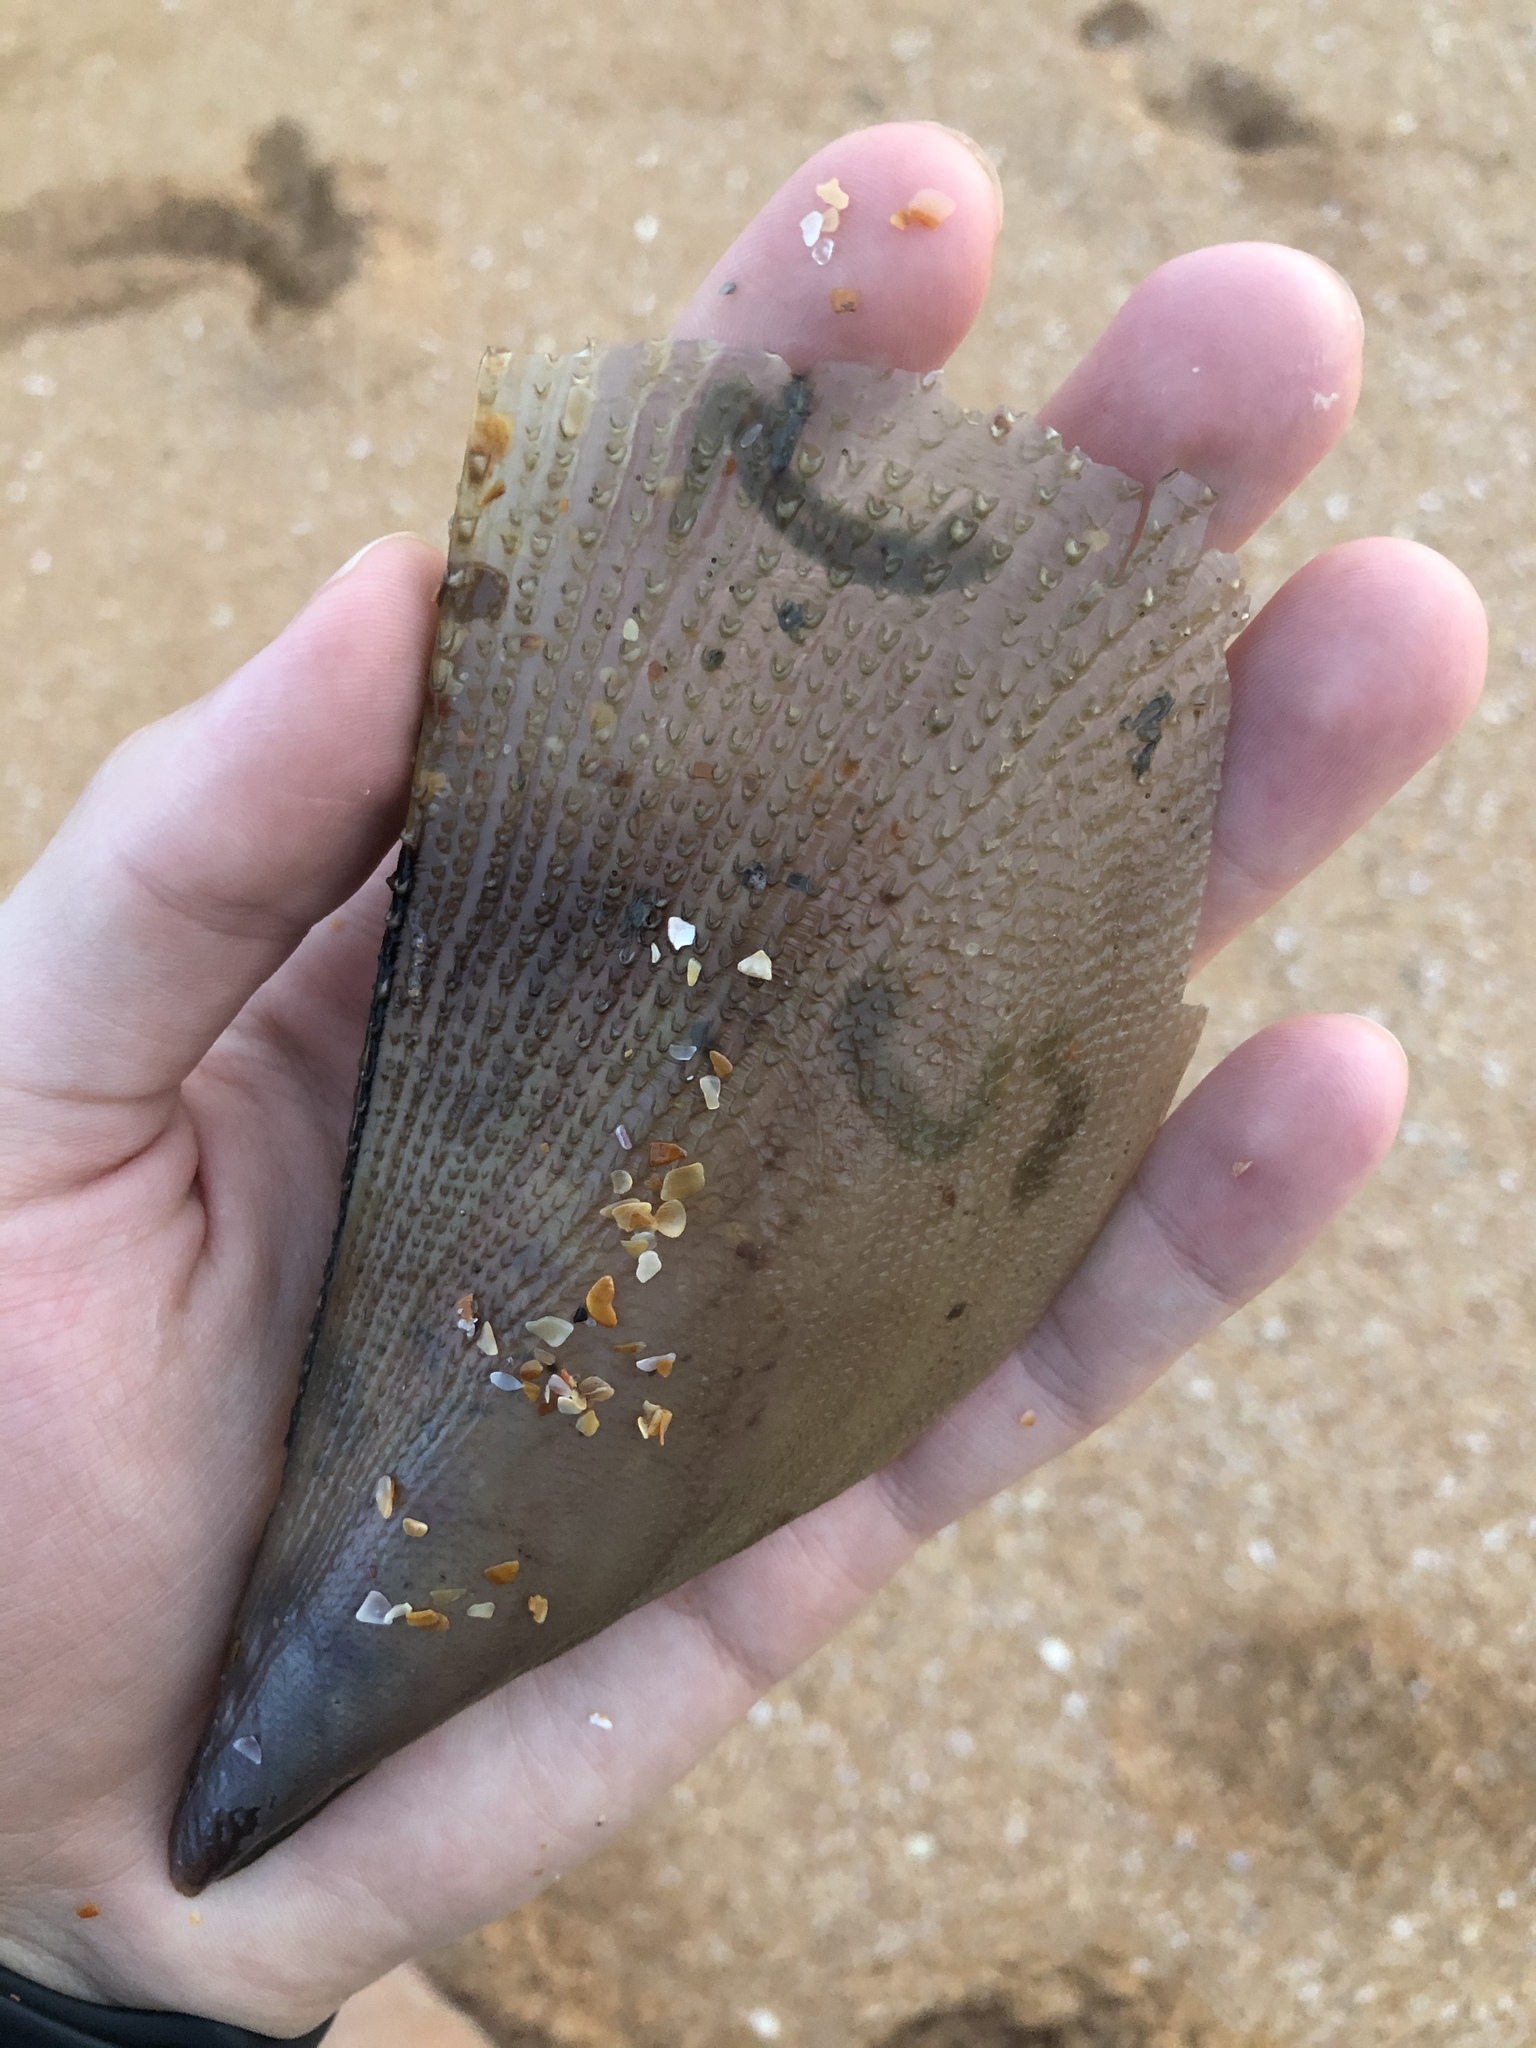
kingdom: Animalia
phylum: Mollusca
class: Bivalvia
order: Ostreida
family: Pinnidae
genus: Atrina
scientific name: Atrina serrata
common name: Saw-toothed penshell
